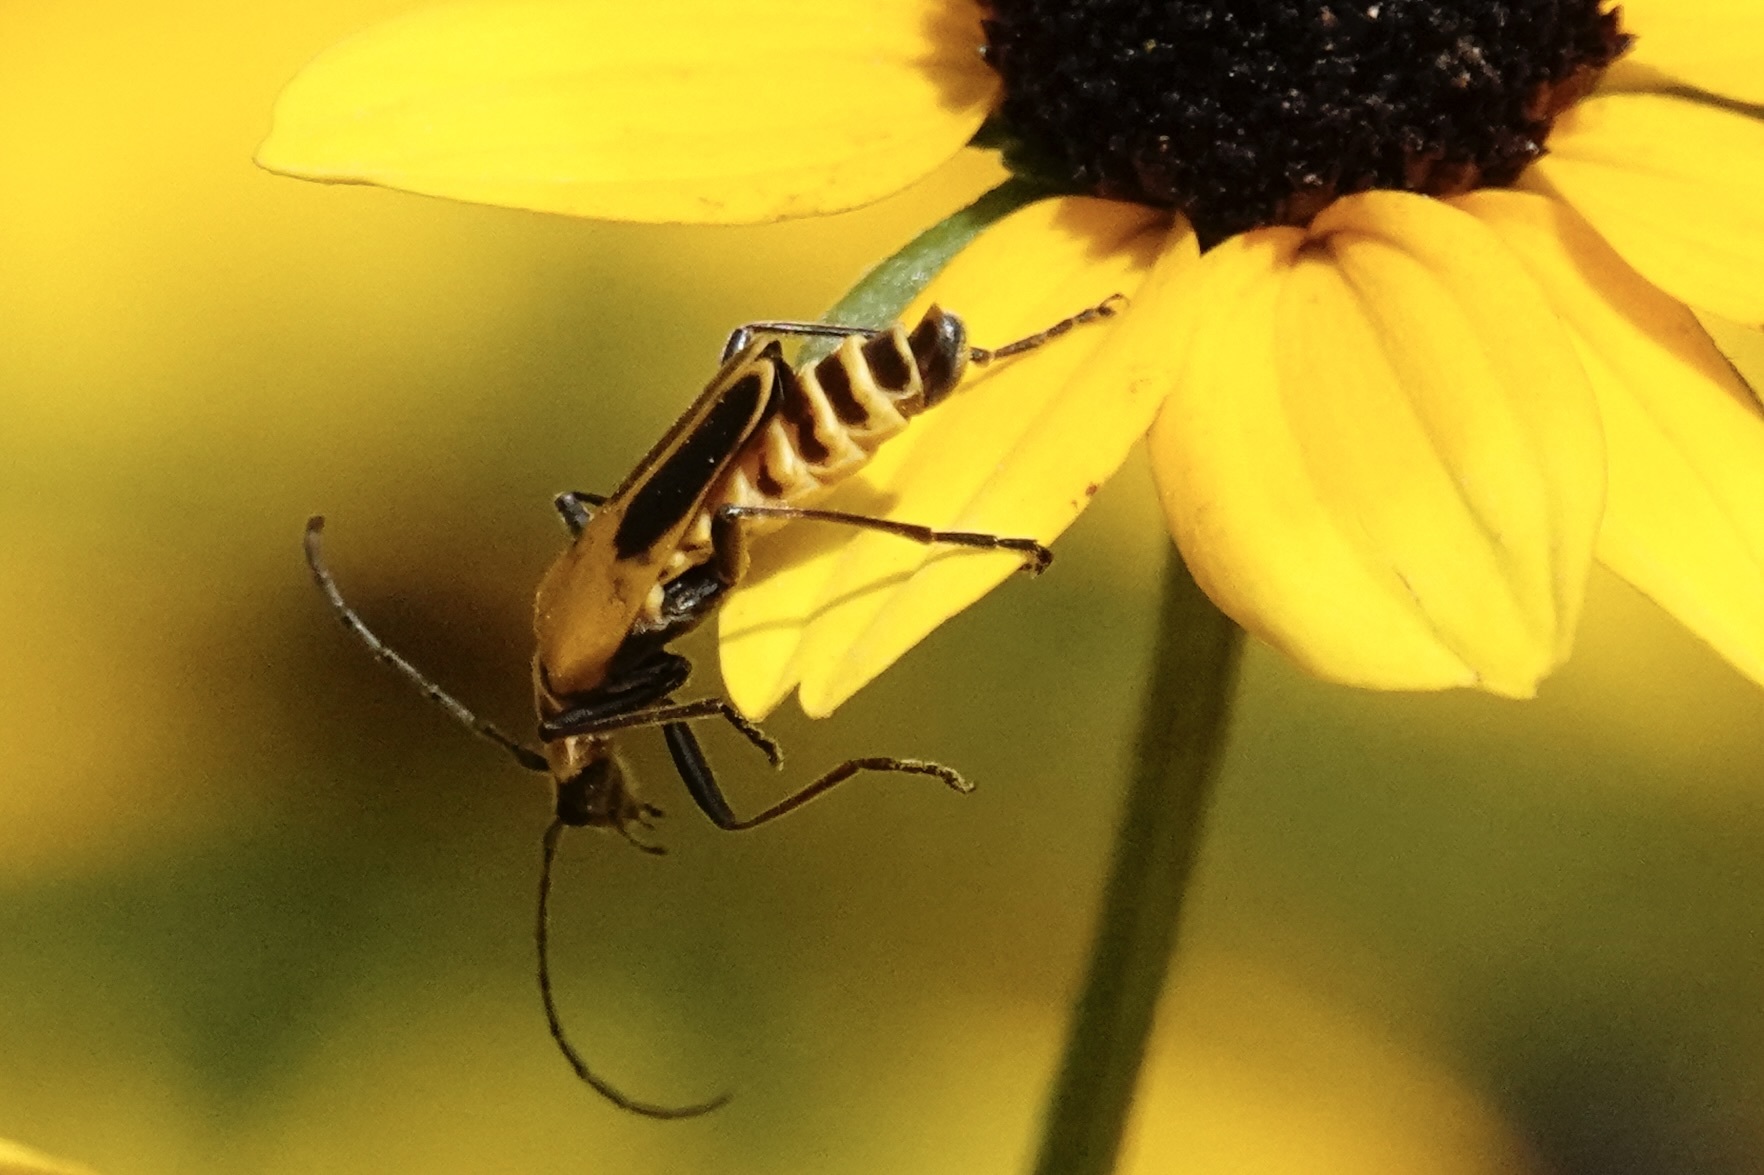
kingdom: Animalia
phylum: Arthropoda
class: Insecta
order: Coleoptera
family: Cantharidae
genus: Chauliognathus
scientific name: Chauliognathus pensylvanicus
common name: Goldenrod soldier beetle
